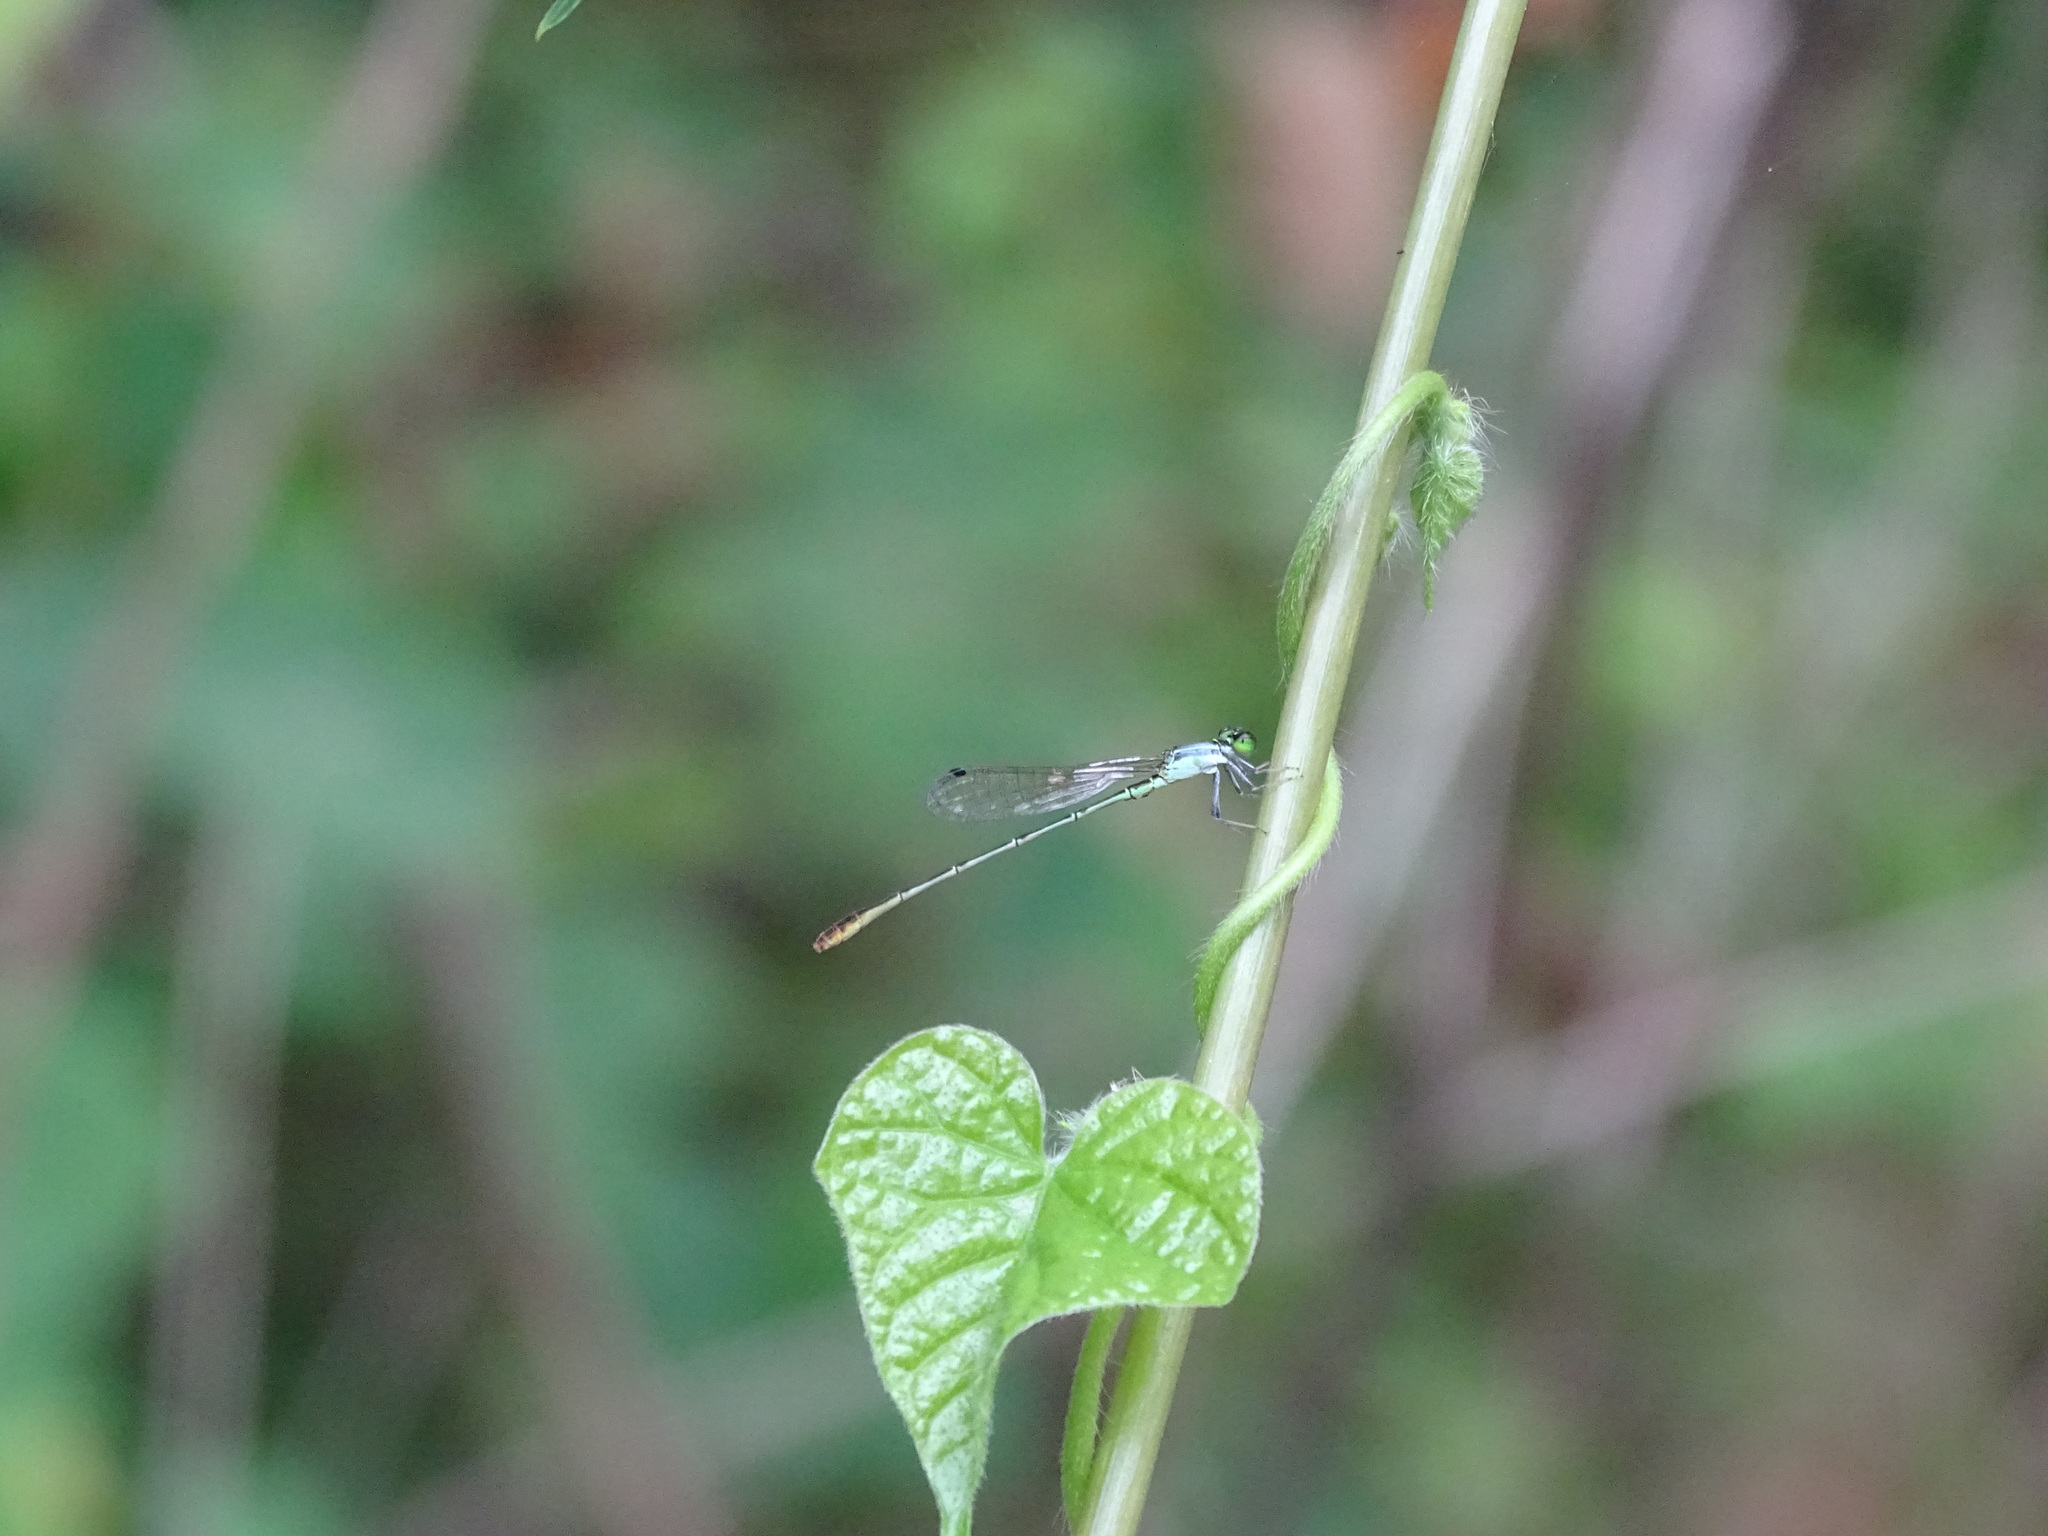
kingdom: Animalia
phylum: Arthropoda
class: Insecta
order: Odonata
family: Coenagrionidae
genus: Agriocnemis
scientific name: Agriocnemis pygmaea
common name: Pygmy wisp
